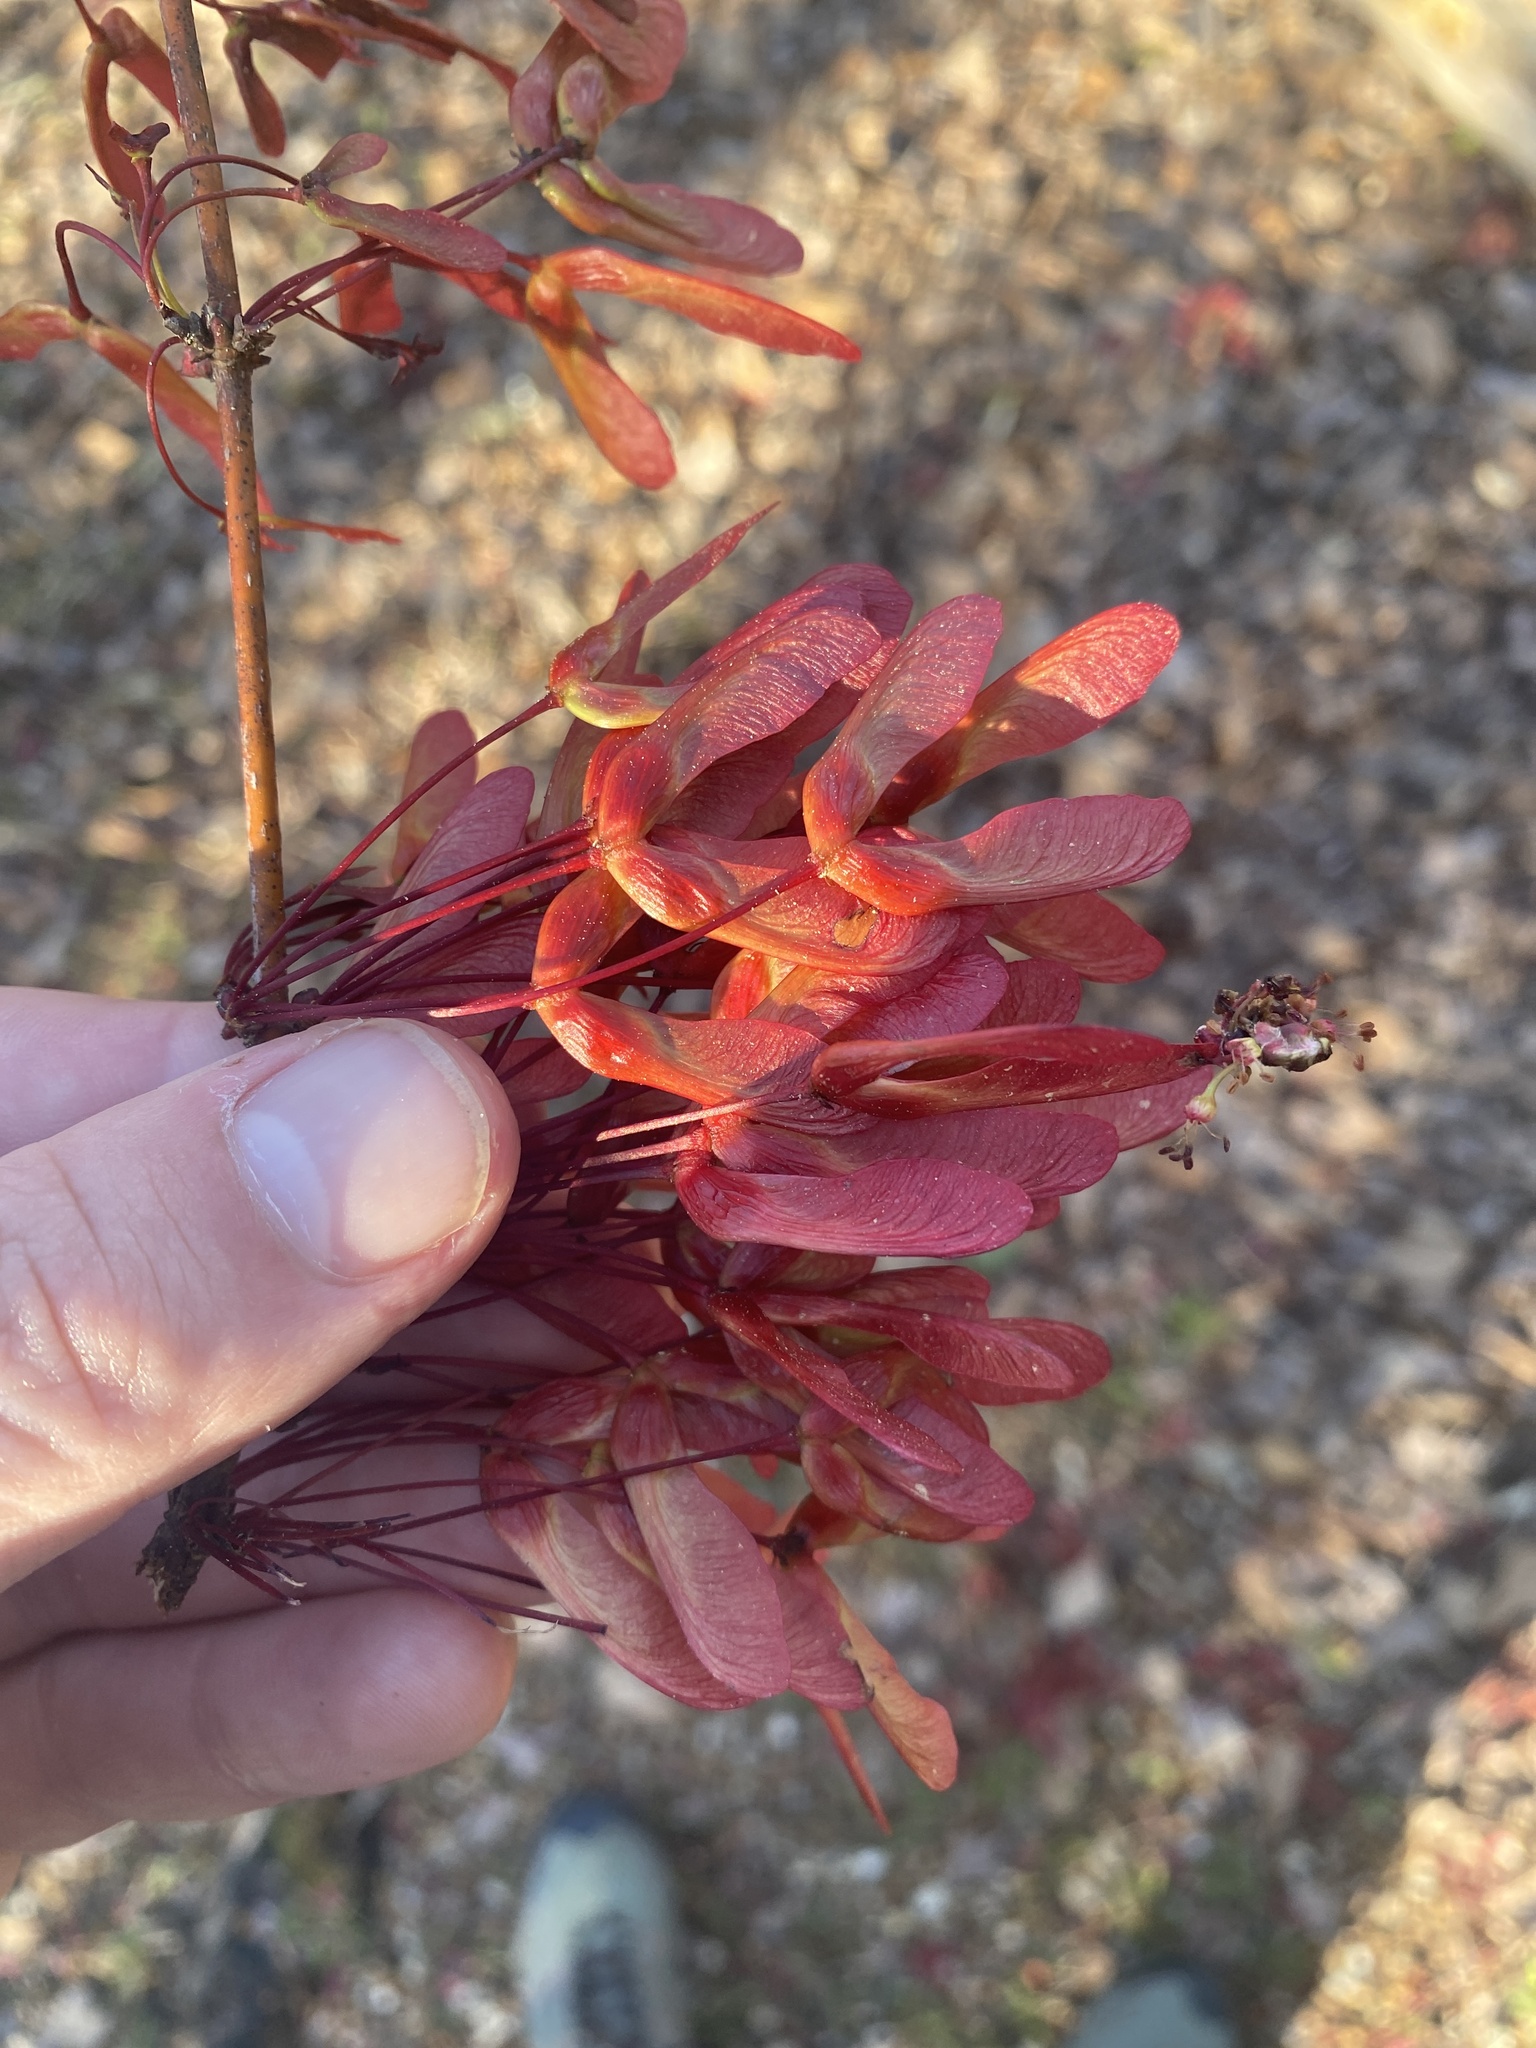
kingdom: Plantae
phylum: Tracheophyta
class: Magnoliopsida
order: Sapindales
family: Sapindaceae
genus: Acer
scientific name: Acer rubrum
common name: Red maple
